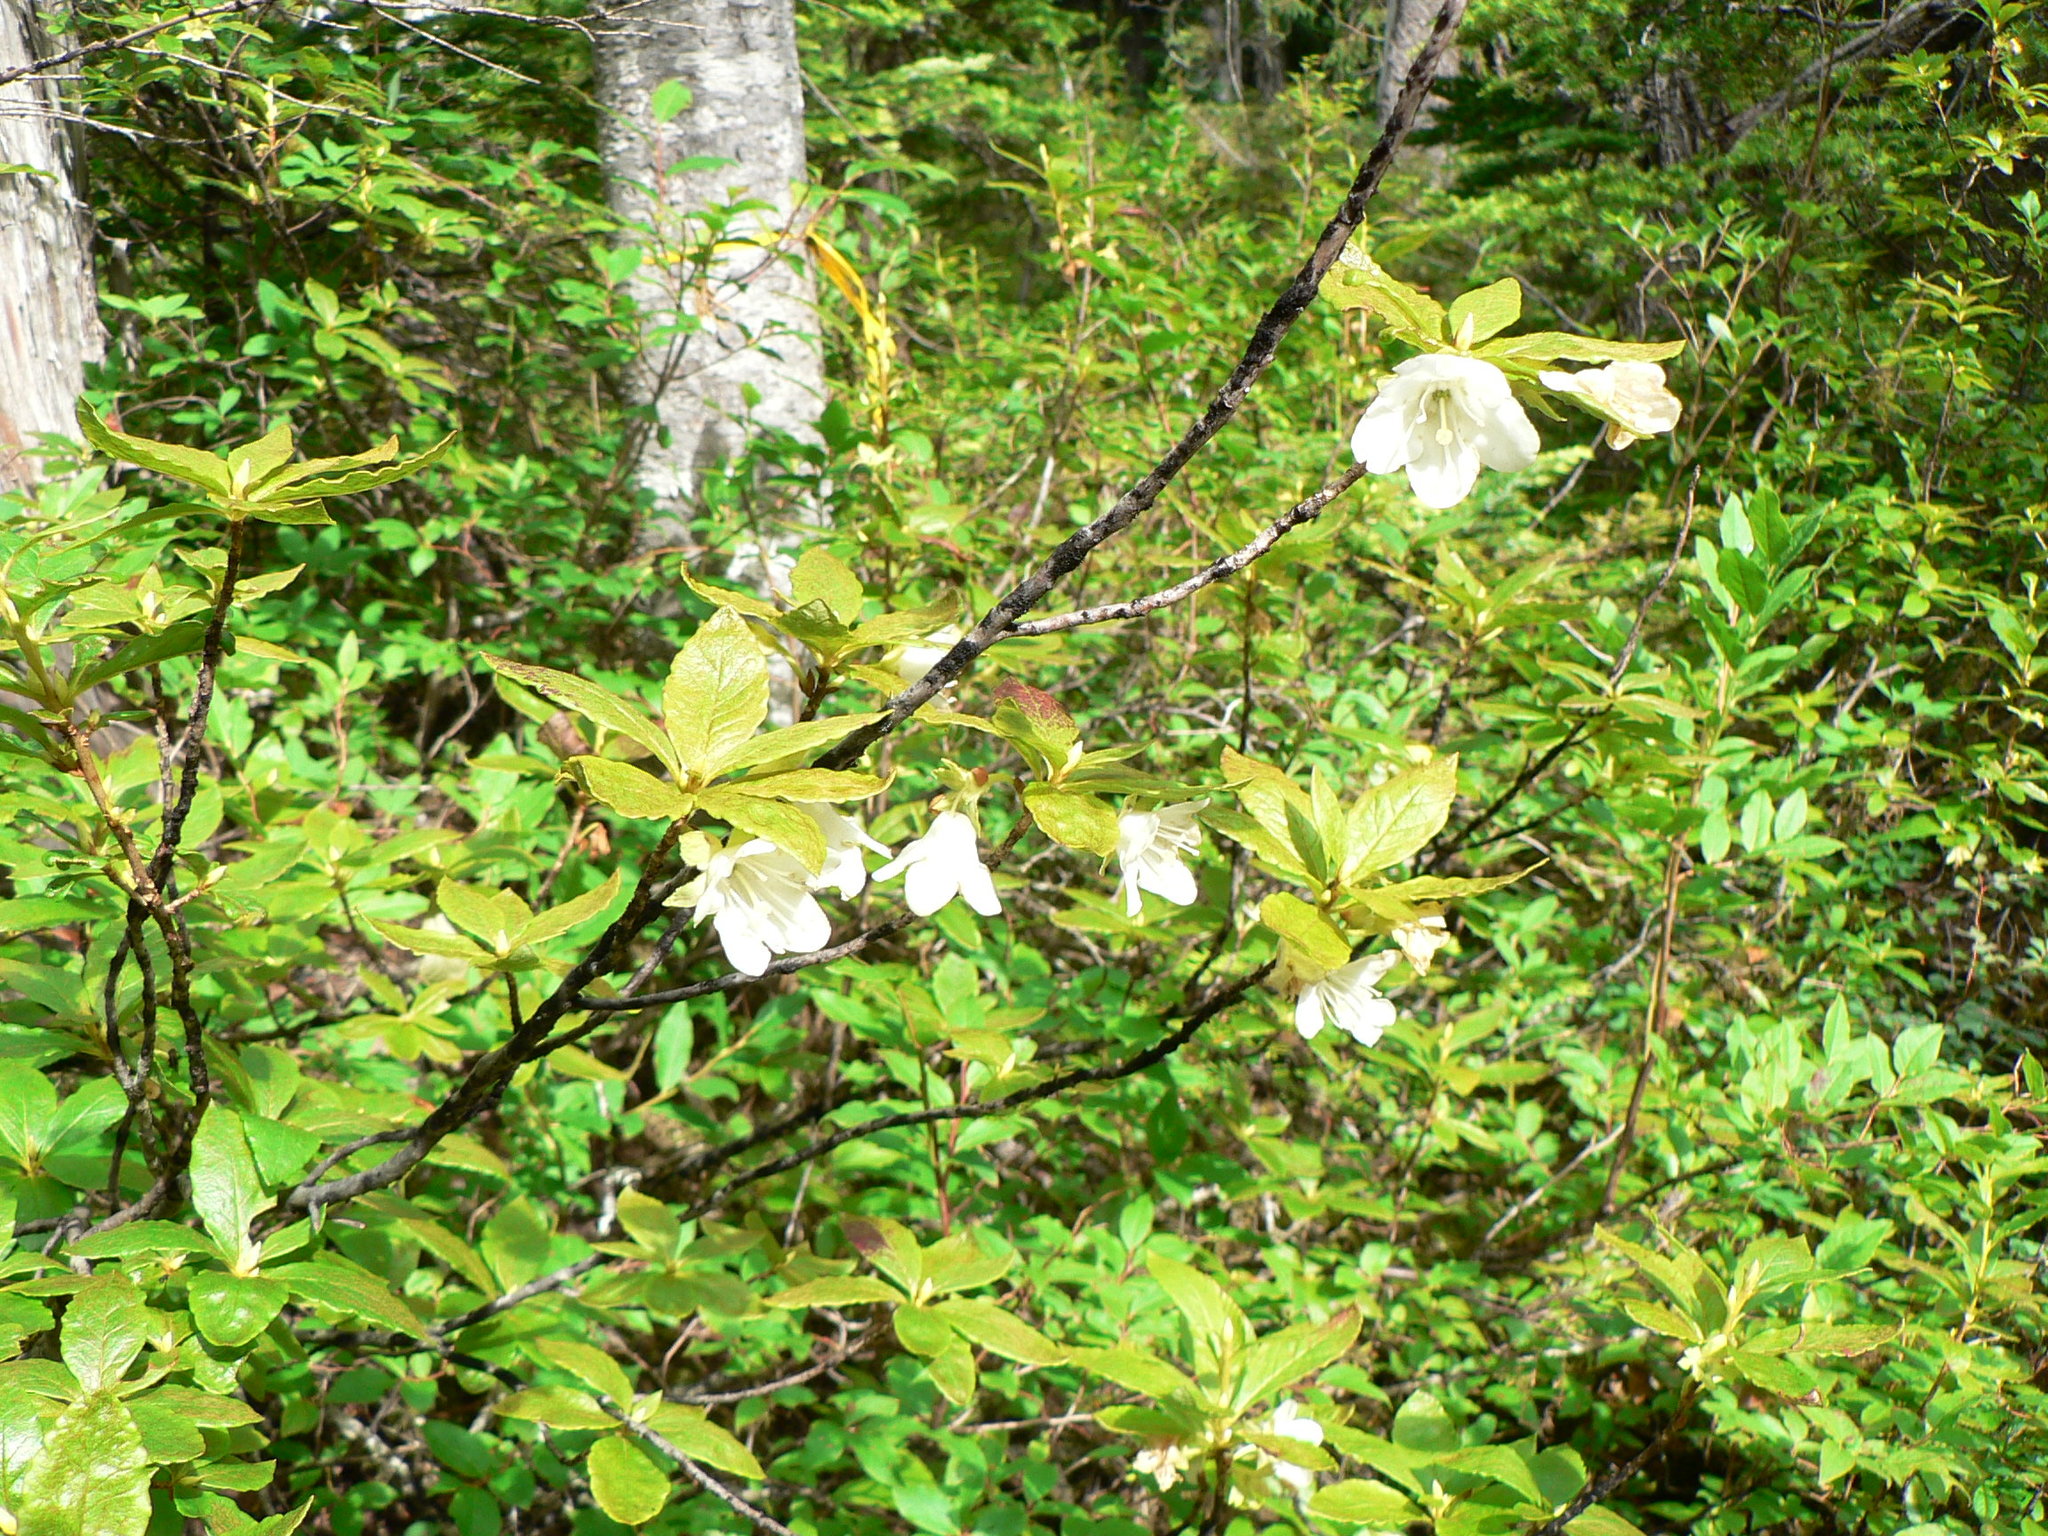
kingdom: Plantae
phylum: Tracheophyta
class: Magnoliopsida
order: Ericales
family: Ericaceae
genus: Rhododendron
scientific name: Rhododendron albiflorum
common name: White rhododendron
